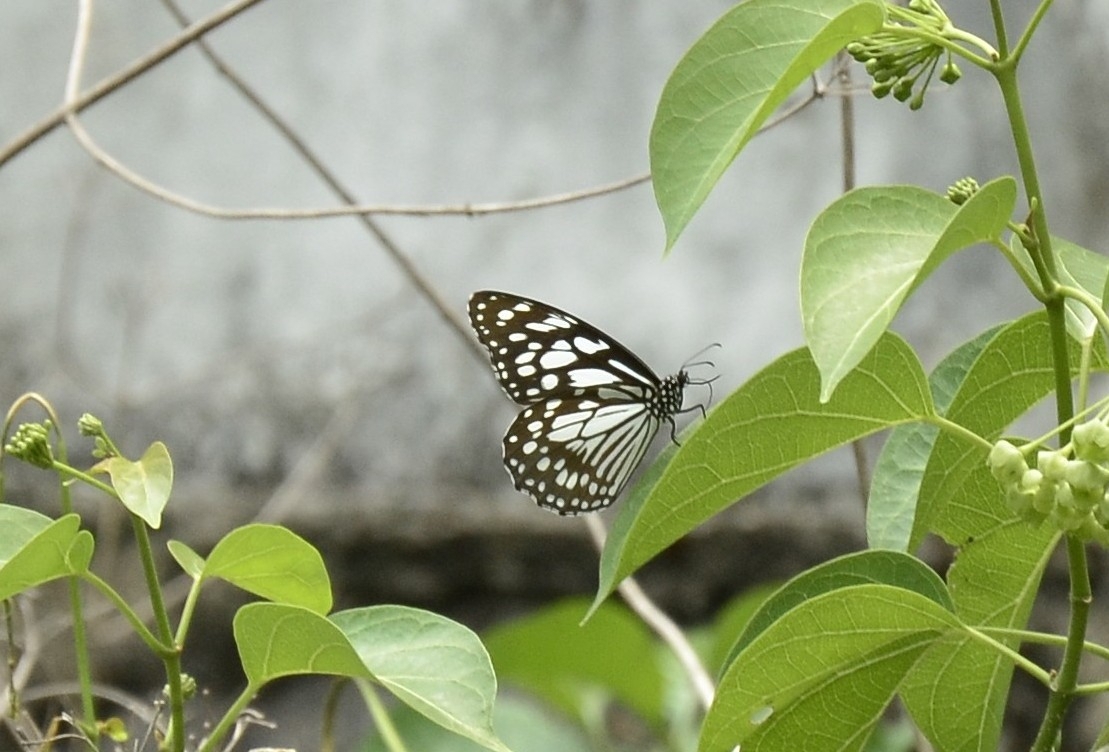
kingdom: Animalia
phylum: Arthropoda
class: Insecta
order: Lepidoptera
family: Nymphalidae
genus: Tirumala
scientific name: Tirumala limniace
